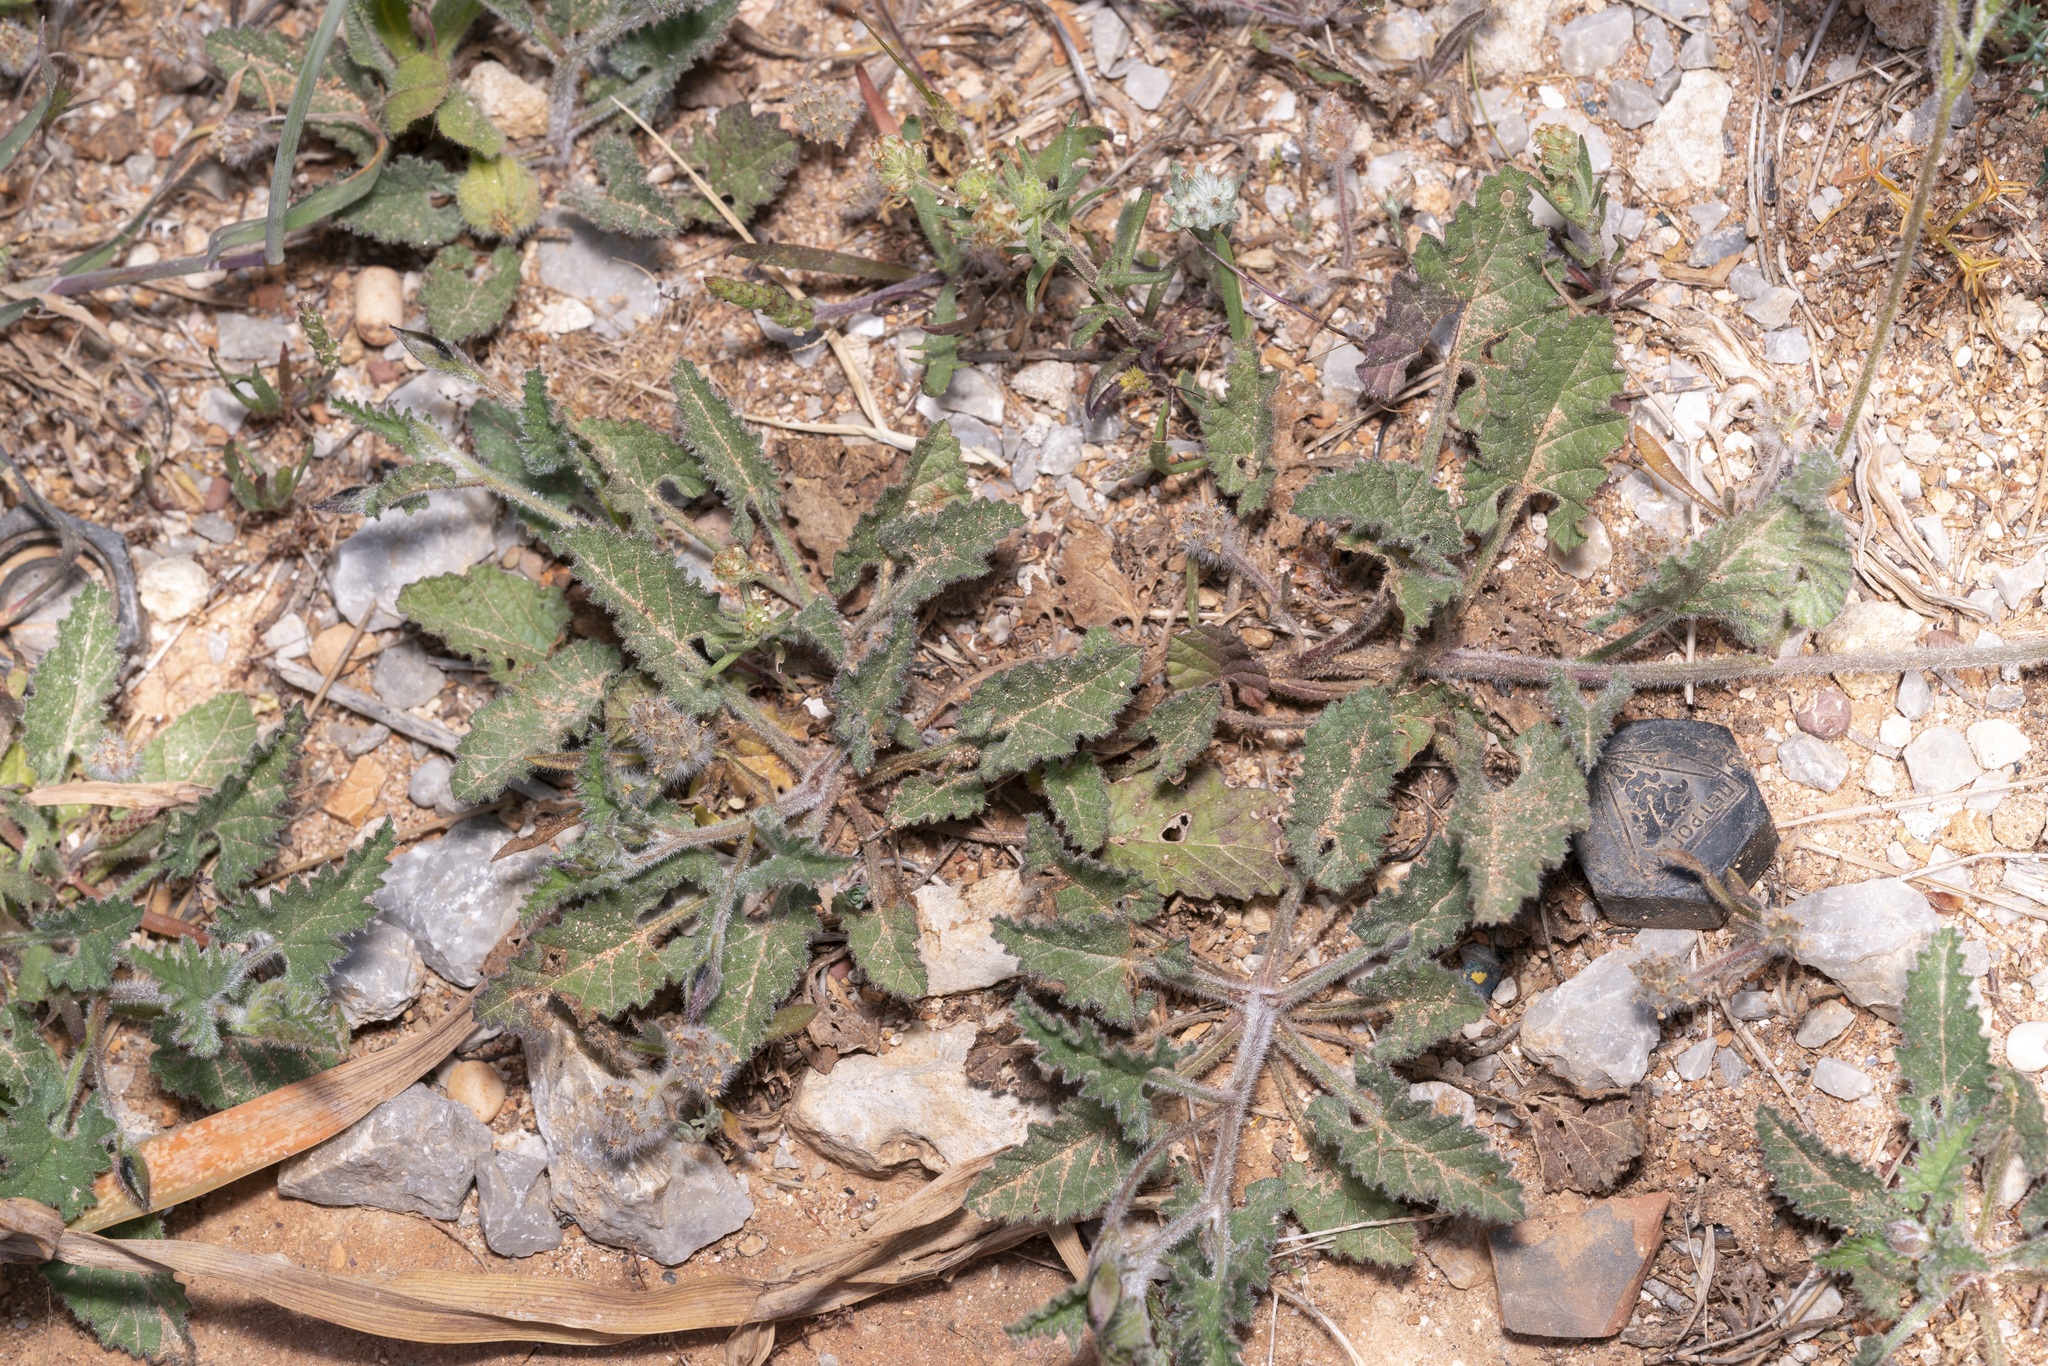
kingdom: Plantae
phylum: Tracheophyta
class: Magnoliopsida
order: Solanales
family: Convolvulaceae
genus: Convolvulus
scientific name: Convolvulus althaeoides
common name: Mallow bindweed
